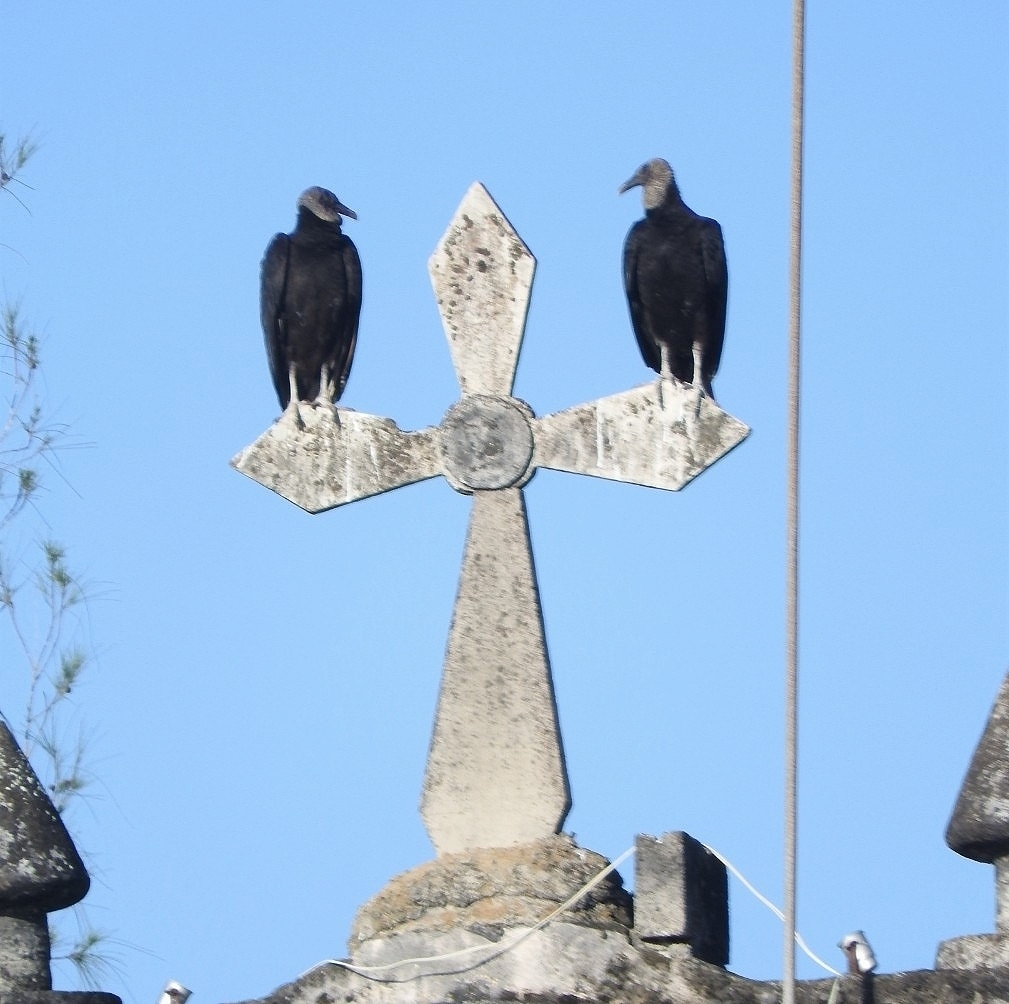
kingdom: Animalia
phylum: Chordata
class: Aves
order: Accipitriformes
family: Cathartidae
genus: Coragyps
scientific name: Coragyps atratus
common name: Black vulture
